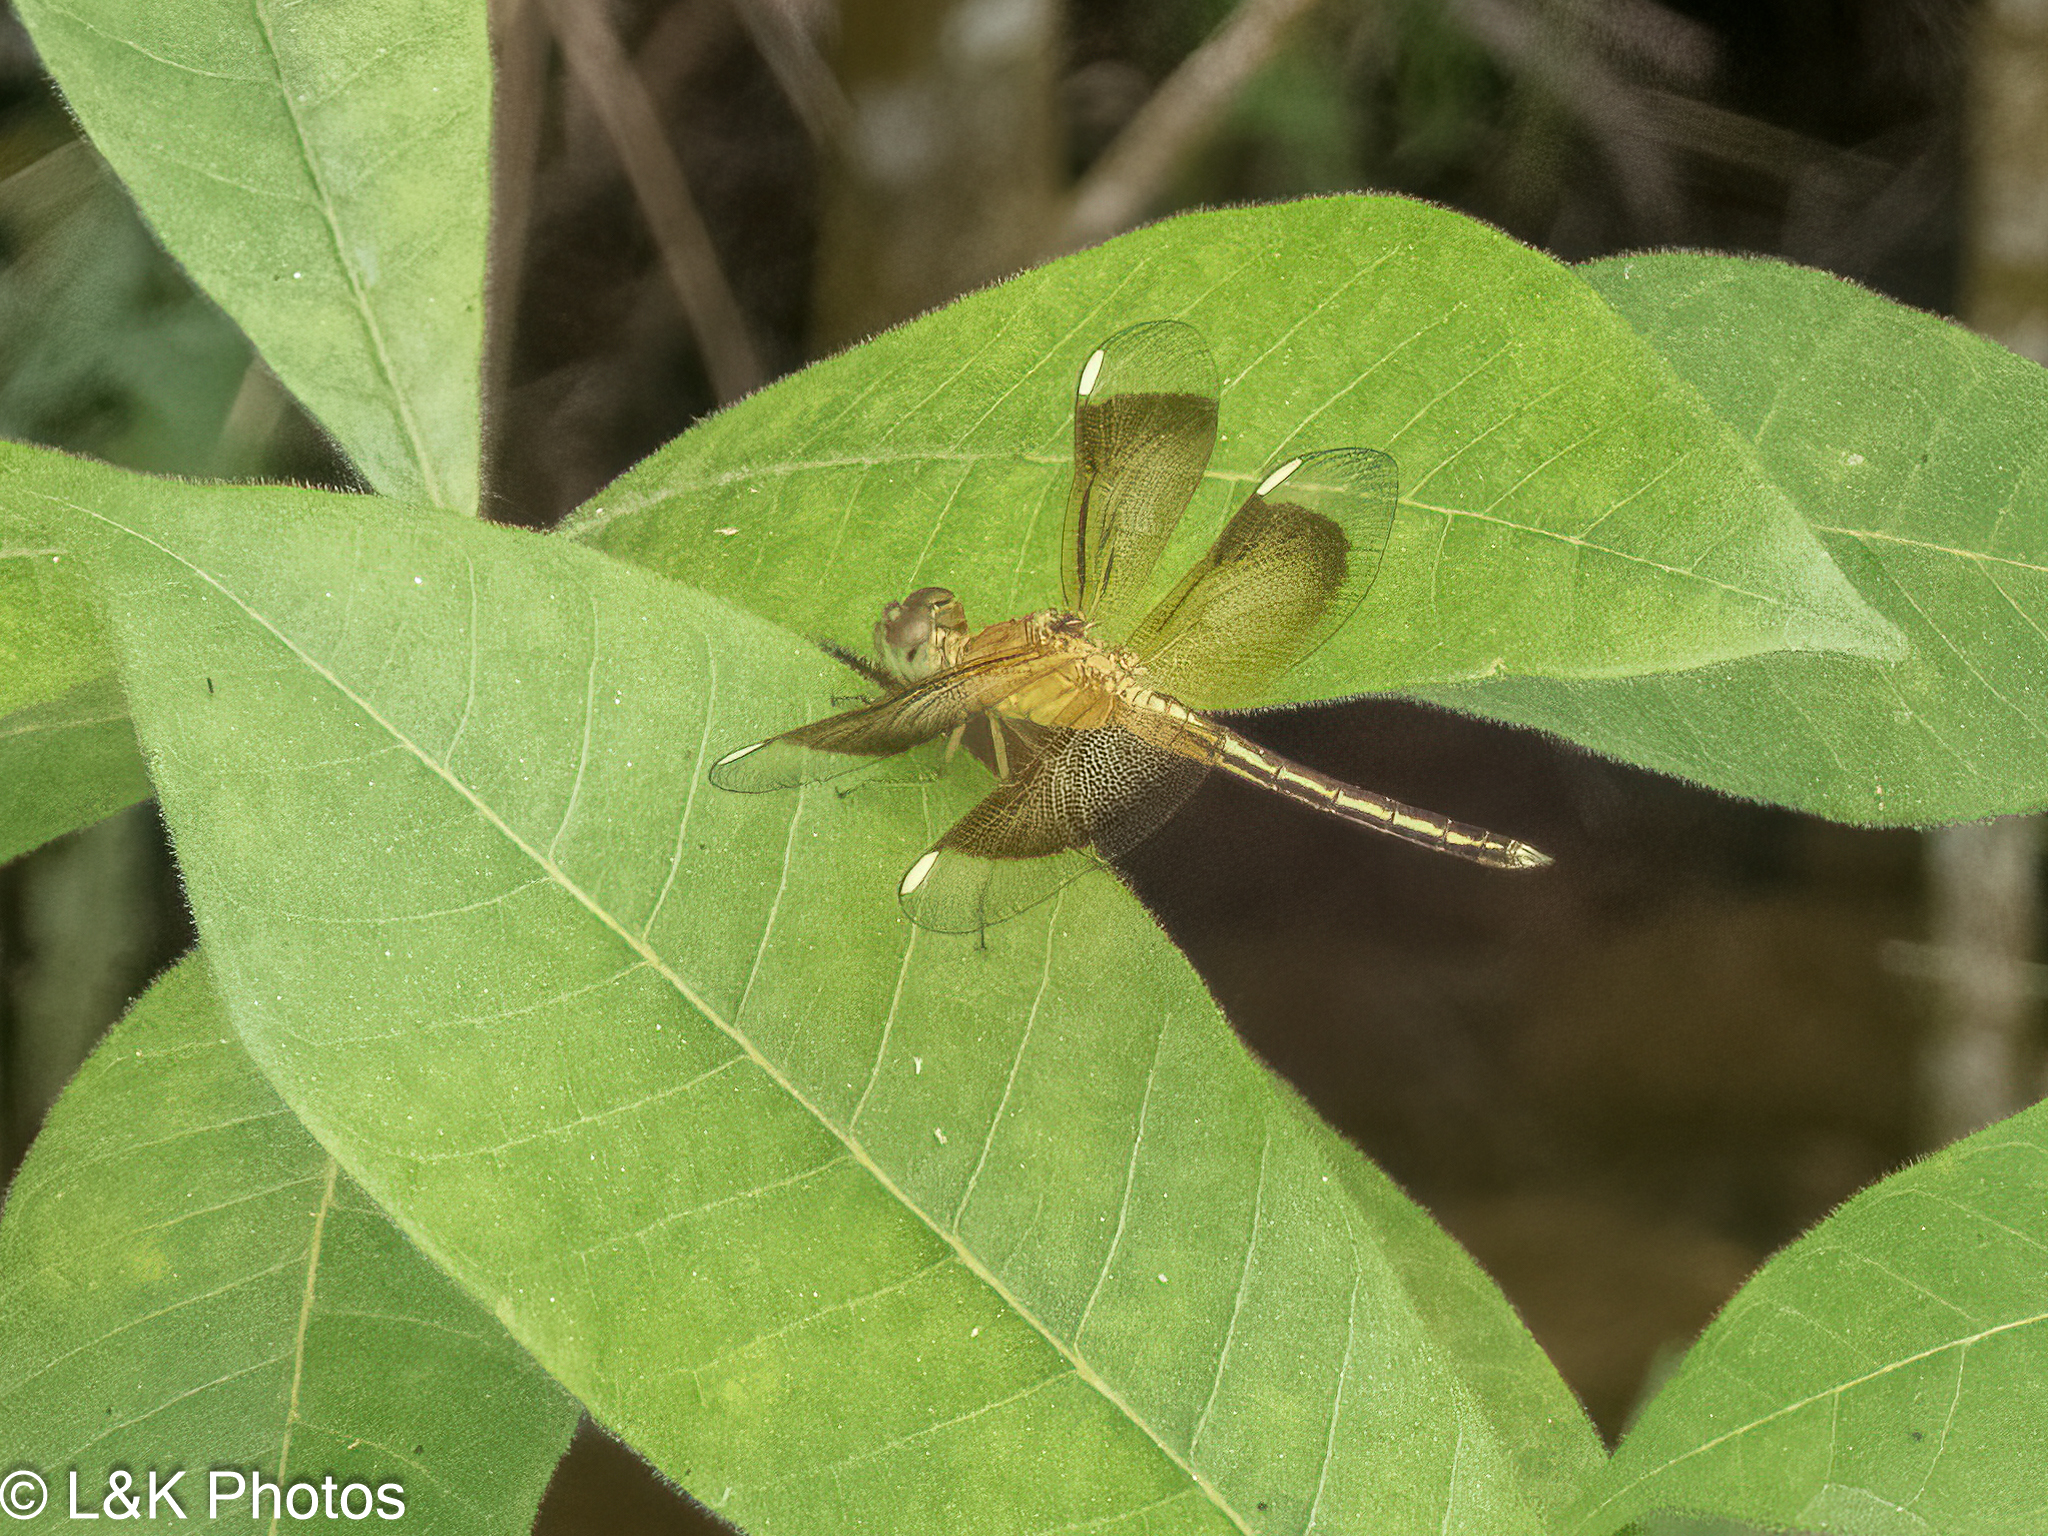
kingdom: Animalia
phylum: Arthropoda
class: Insecta
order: Odonata
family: Libellulidae
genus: Neurothemis
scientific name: Neurothemis stigmatizans
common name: Painted grasshawk
